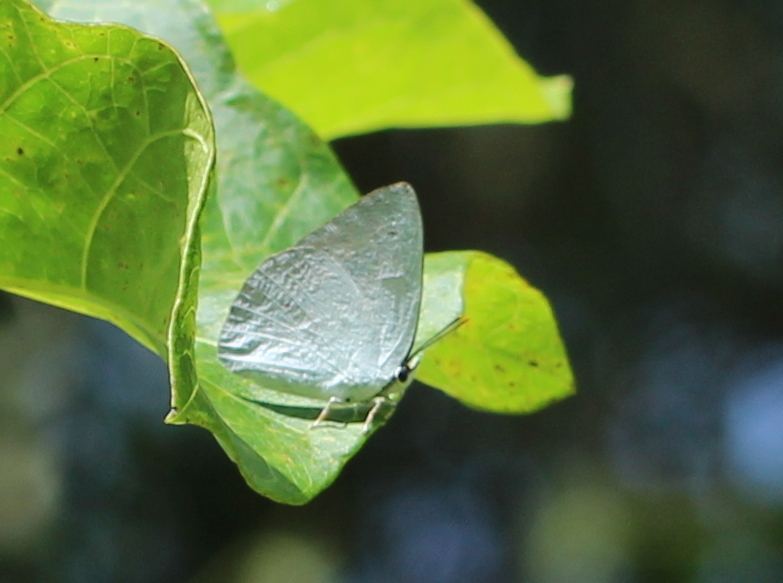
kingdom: Animalia
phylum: Arthropoda
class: Insecta
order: Lepidoptera
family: Lycaenidae
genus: Curetis
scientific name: Curetis thetis
